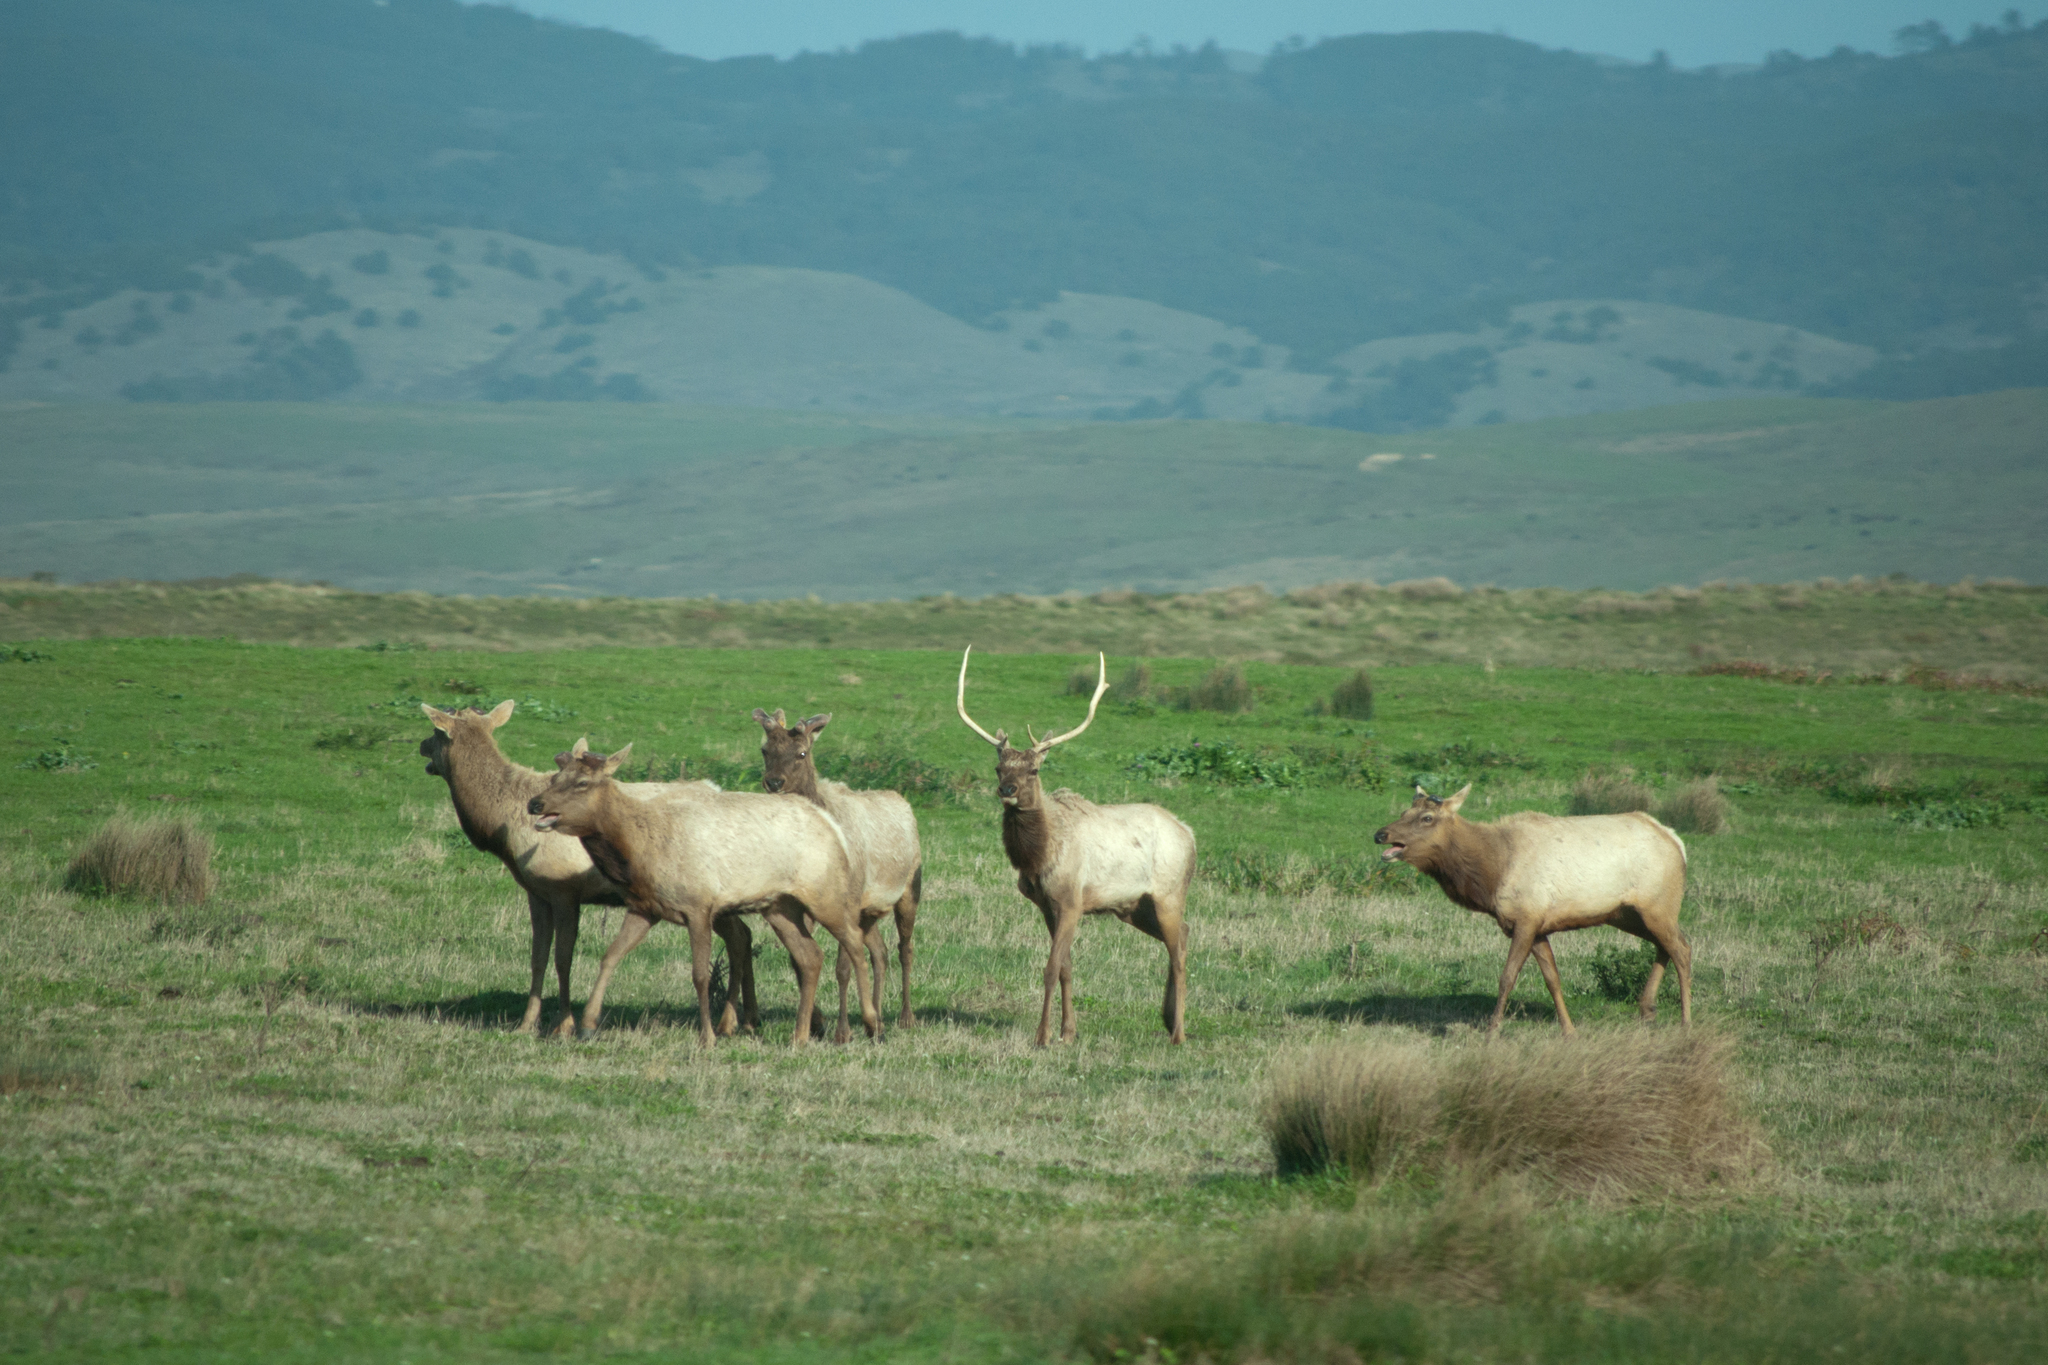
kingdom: Animalia
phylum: Chordata
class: Mammalia
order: Artiodactyla
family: Cervidae
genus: Cervus
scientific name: Cervus elaphus
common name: Red deer
